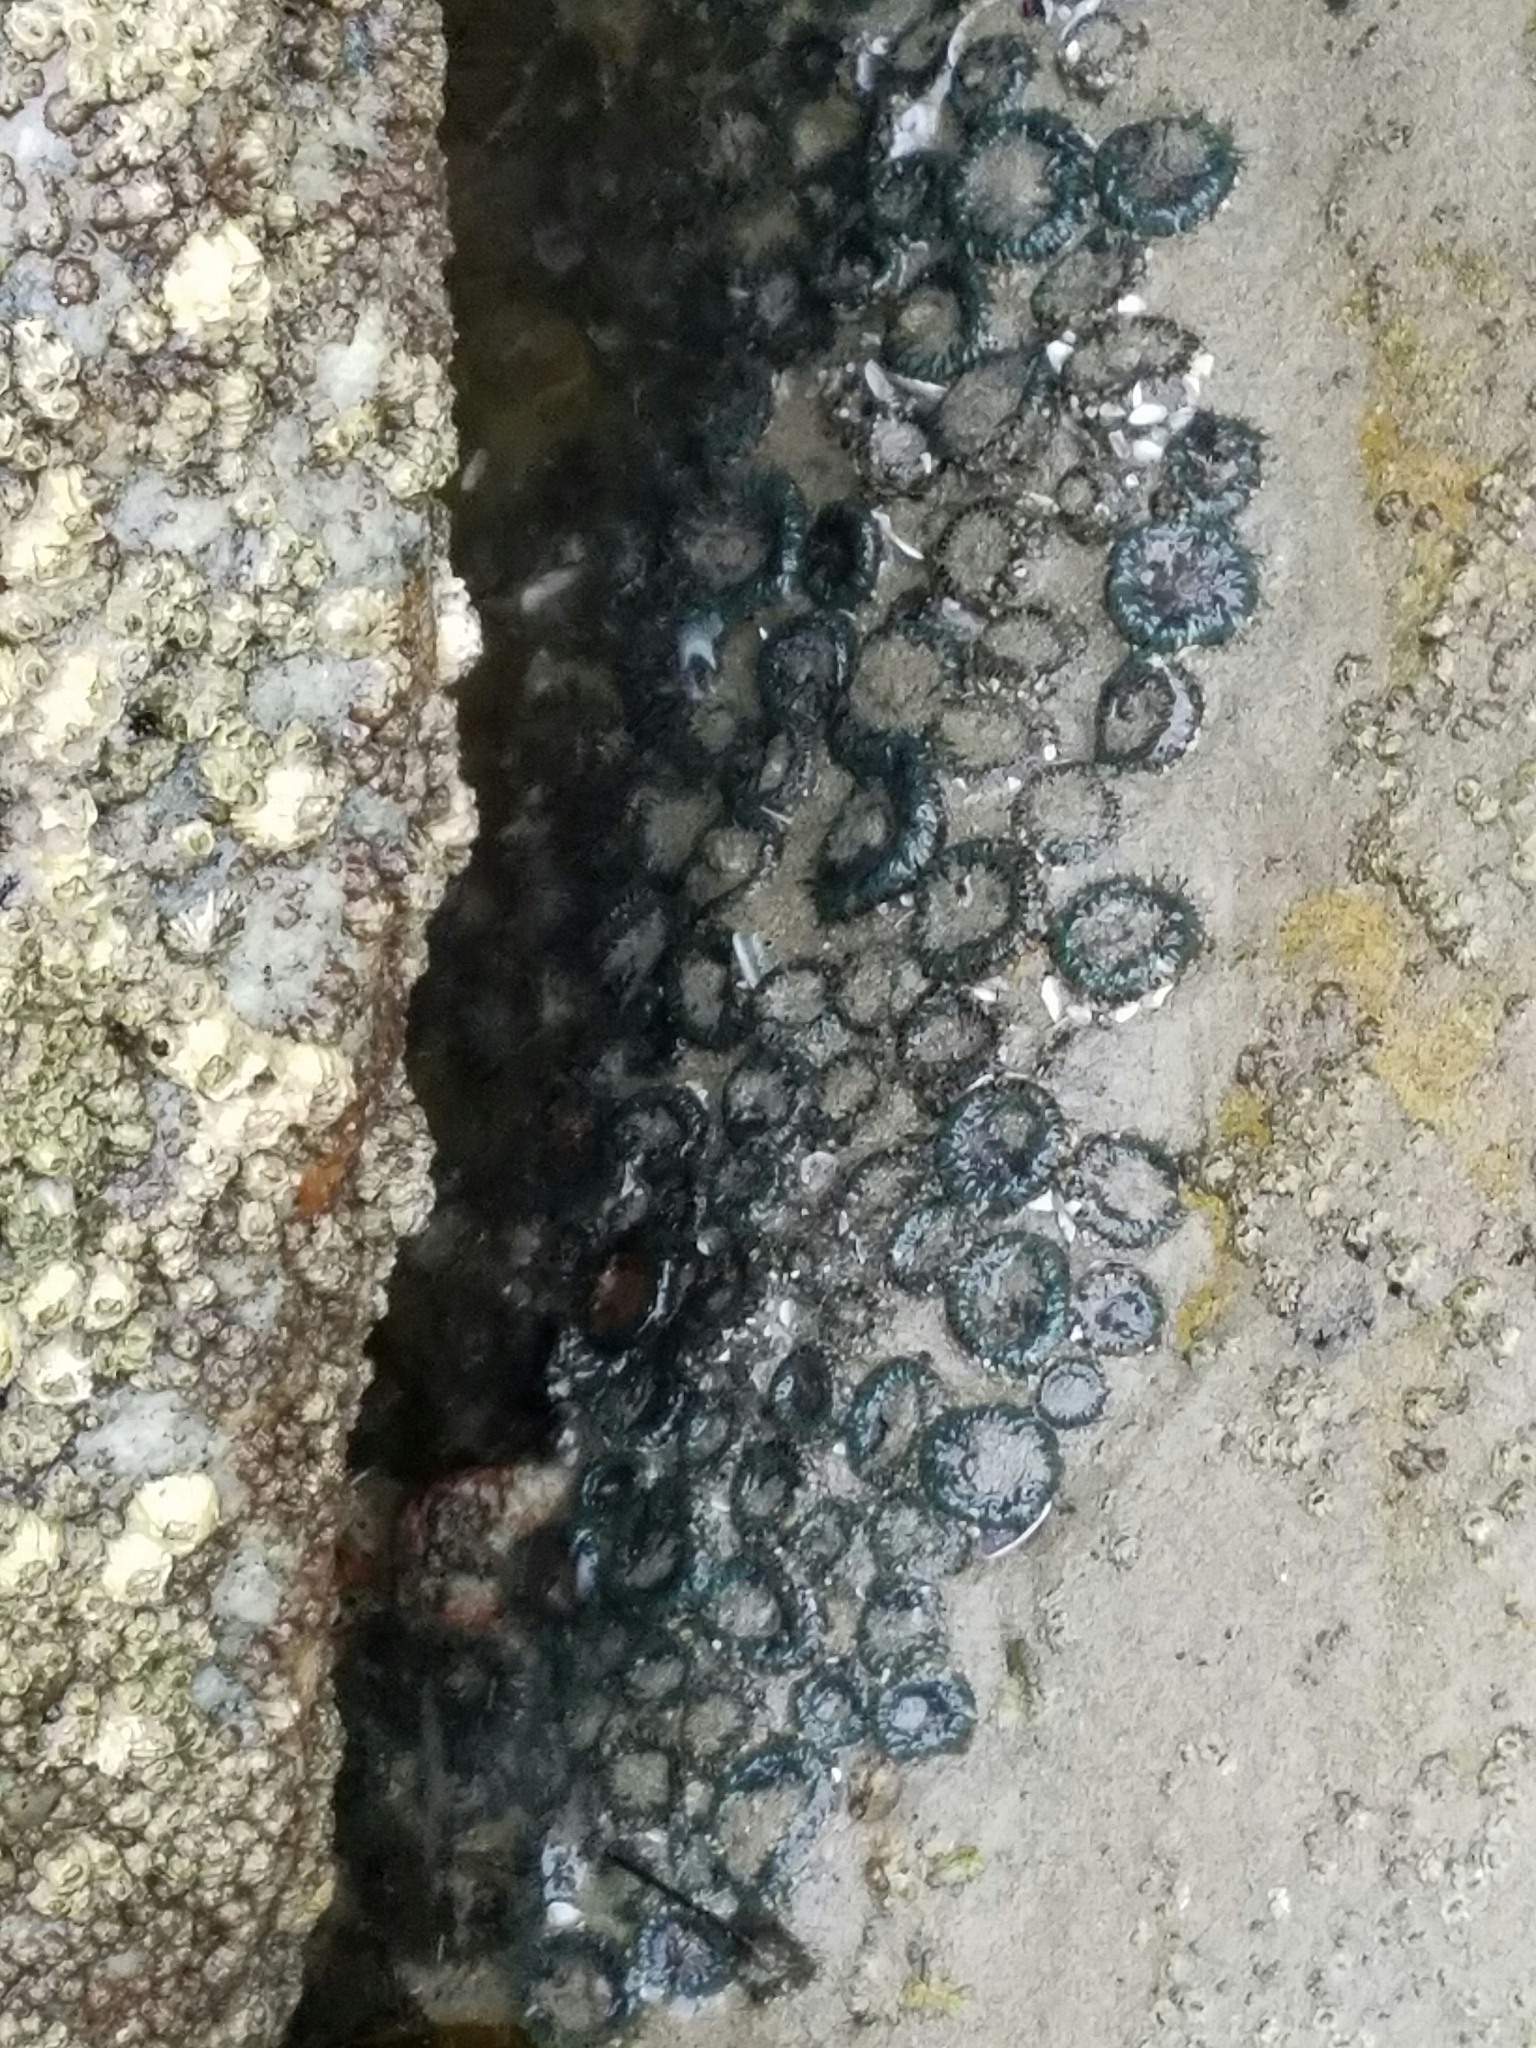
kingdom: Animalia
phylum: Cnidaria
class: Anthozoa
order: Actiniaria
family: Actiniidae
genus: Anthopleura
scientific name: Anthopleura elegantissima
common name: Clonal anemone
